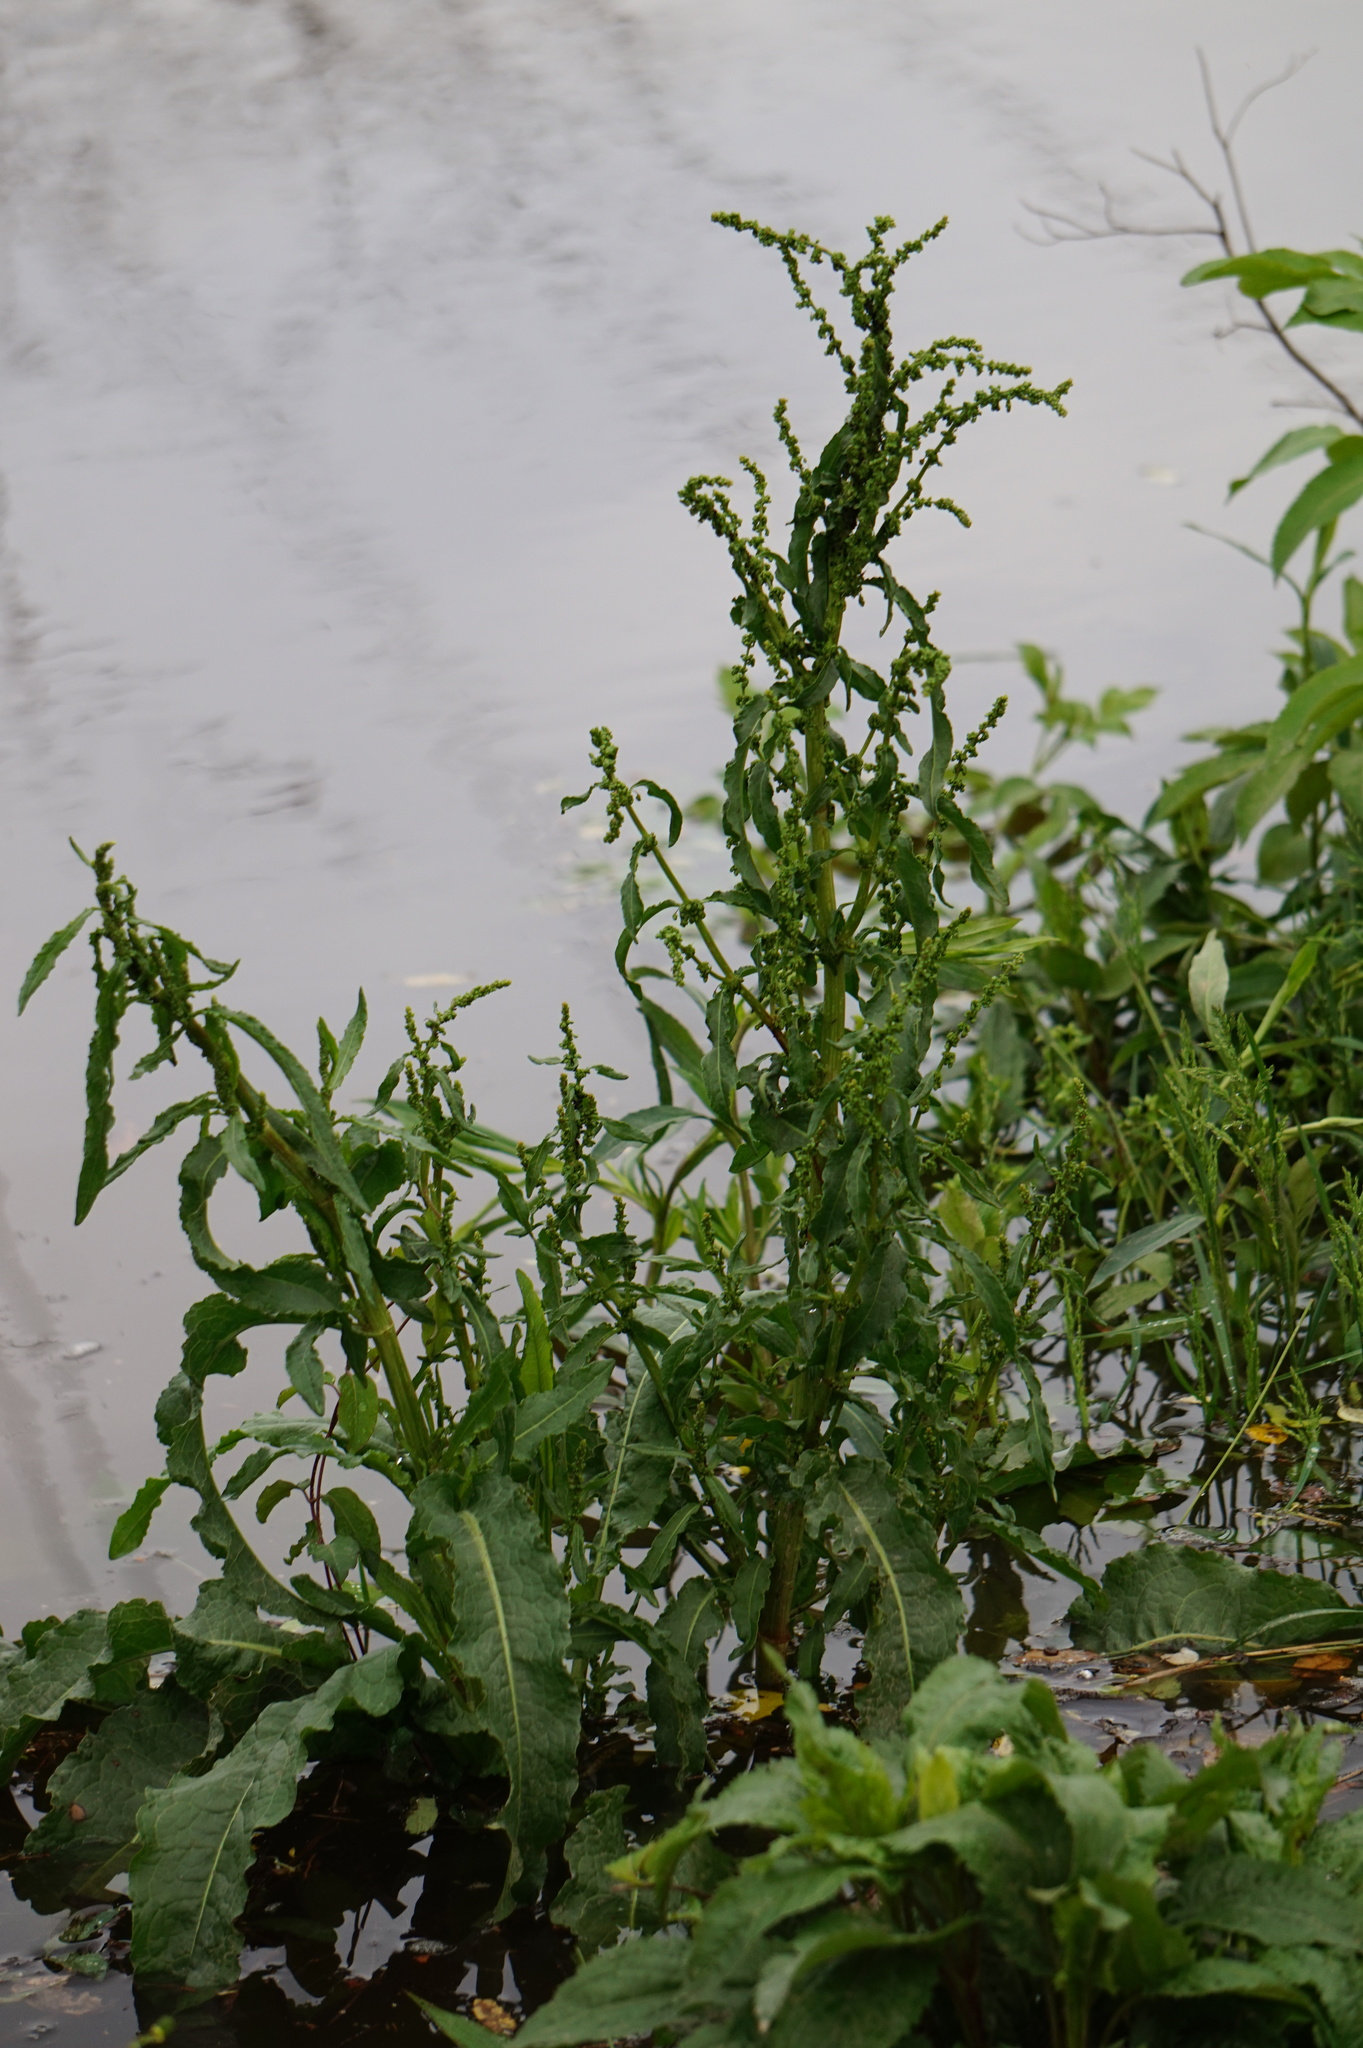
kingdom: Plantae
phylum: Tracheophyta
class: Magnoliopsida
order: Caryophyllales
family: Polygonaceae
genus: Rumex
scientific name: Rumex crispus
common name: Curled dock
